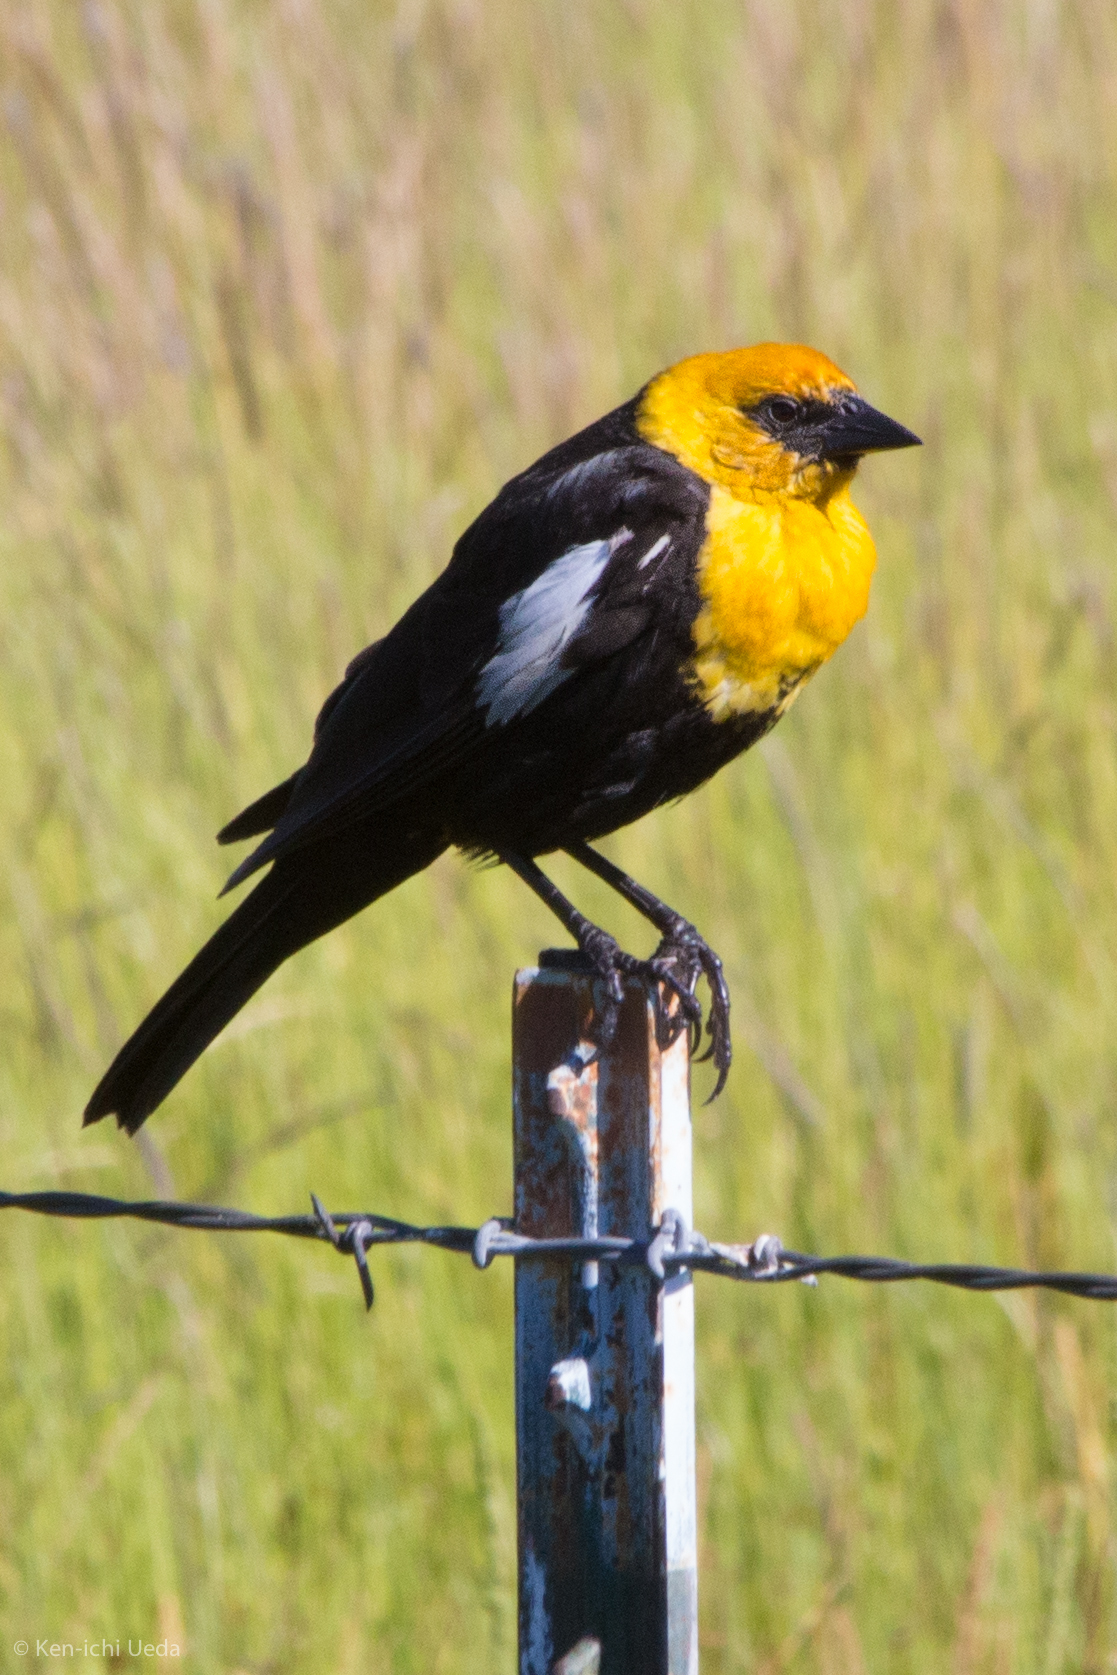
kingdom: Animalia
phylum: Chordata
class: Aves
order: Passeriformes
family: Icteridae
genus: Xanthocephalus
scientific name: Xanthocephalus xanthocephalus
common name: Yellow-headed blackbird
